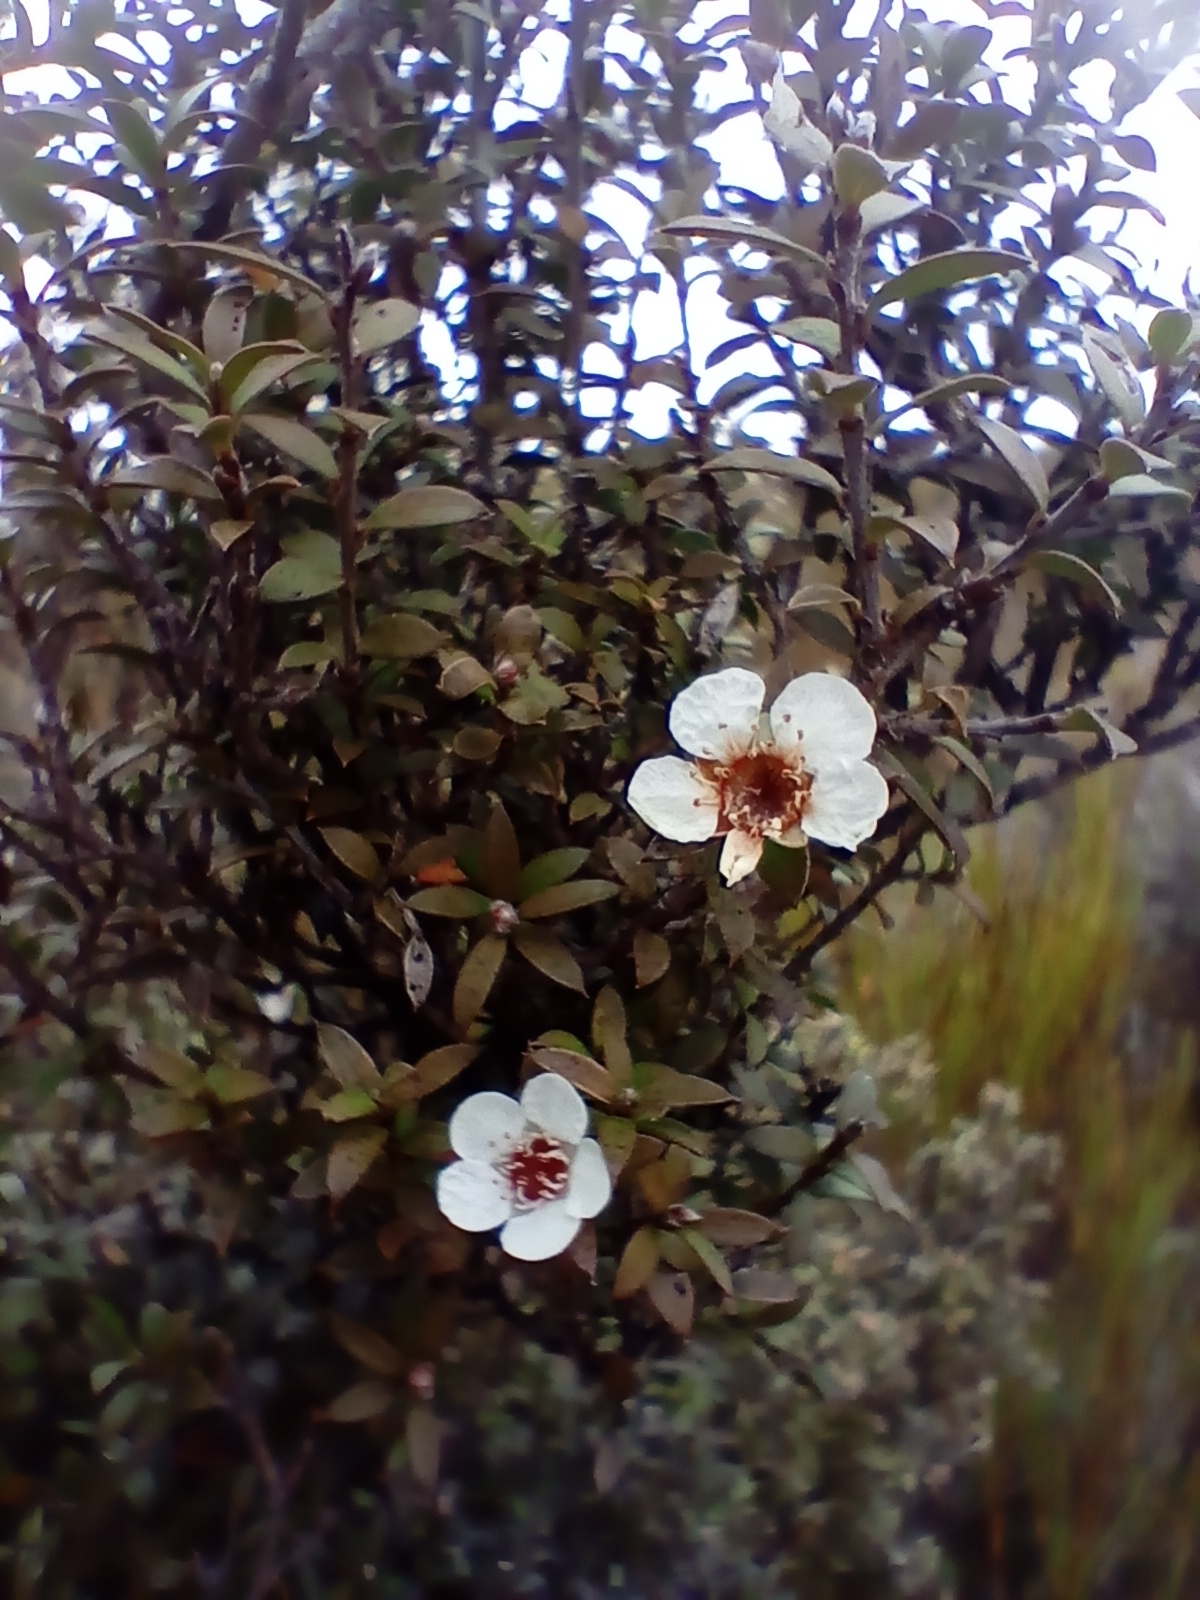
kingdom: Plantae
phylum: Tracheophyta
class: Magnoliopsida
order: Myrtales
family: Myrtaceae
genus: Leptospermum
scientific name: Leptospermum scoparium
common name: Broom tea-tree
